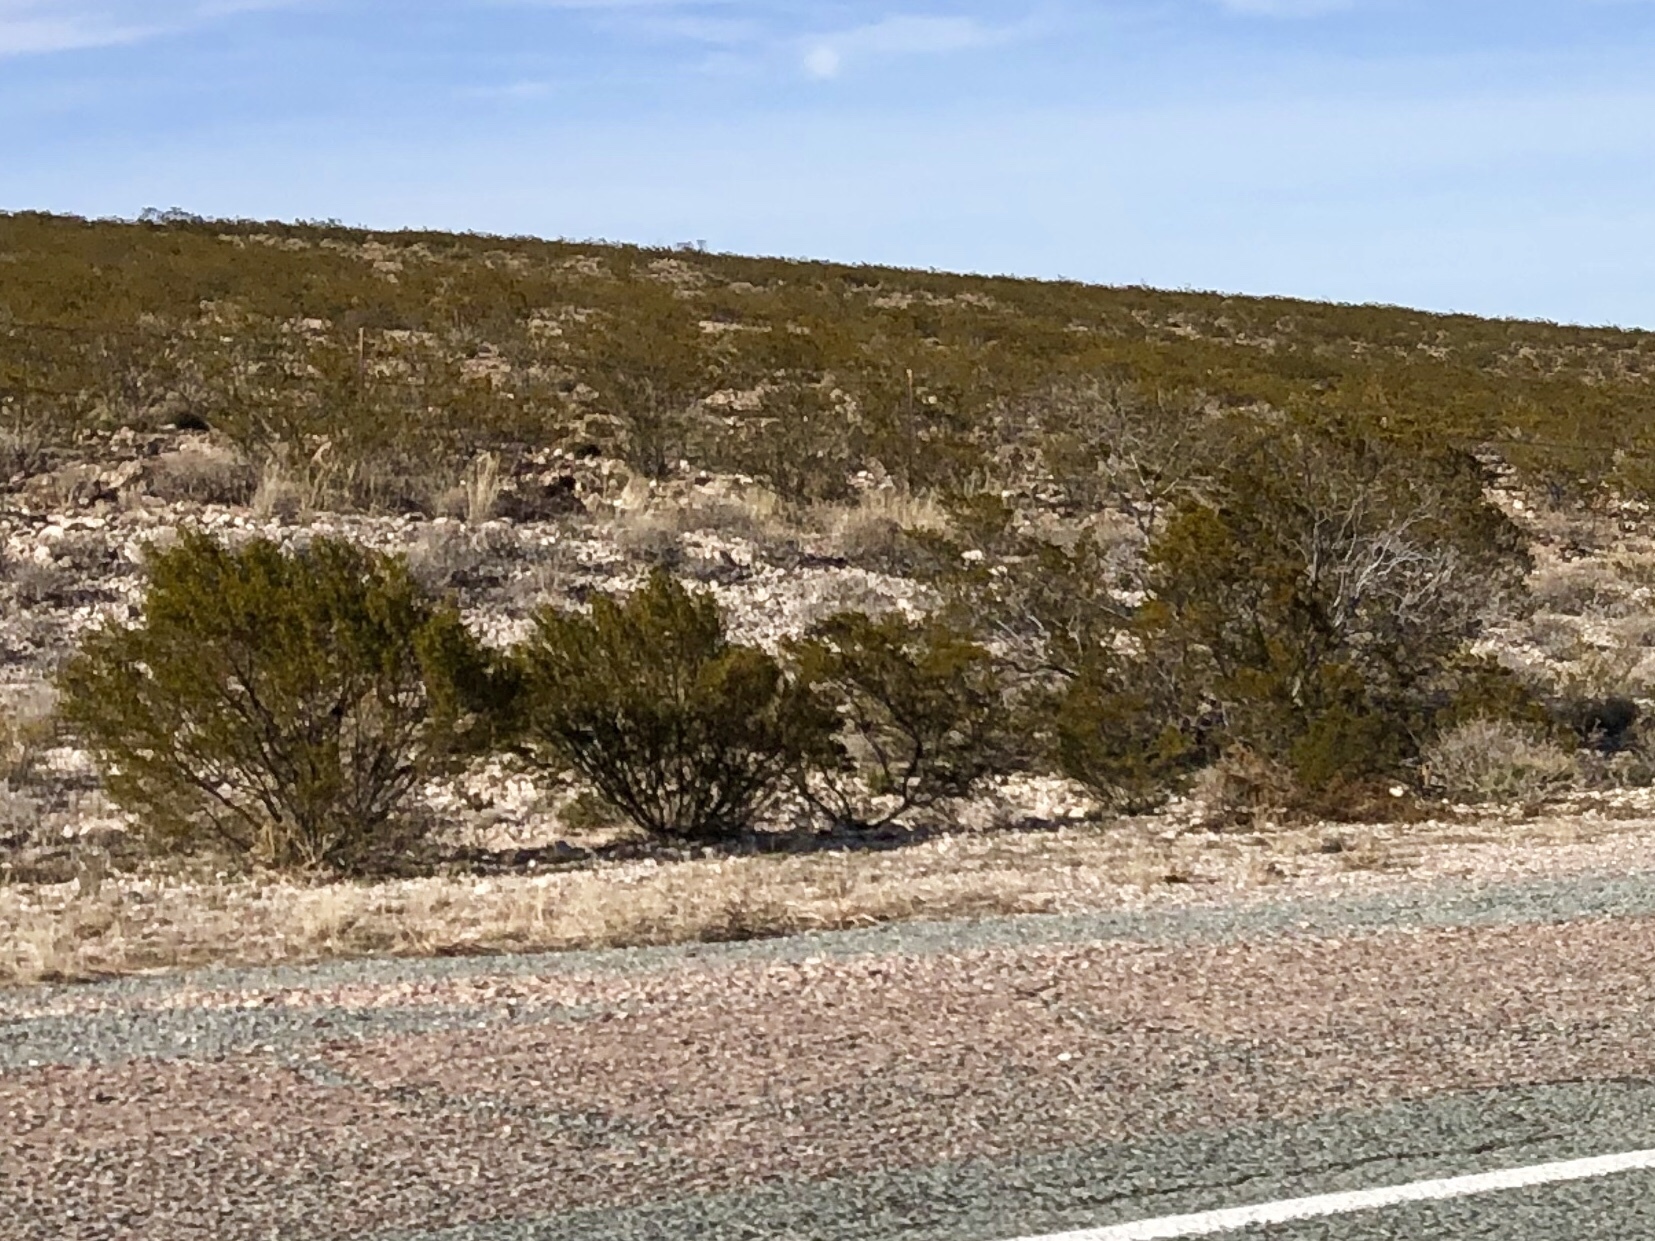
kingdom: Plantae
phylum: Tracheophyta
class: Magnoliopsida
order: Zygophyllales
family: Zygophyllaceae
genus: Larrea
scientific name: Larrea tridentata
